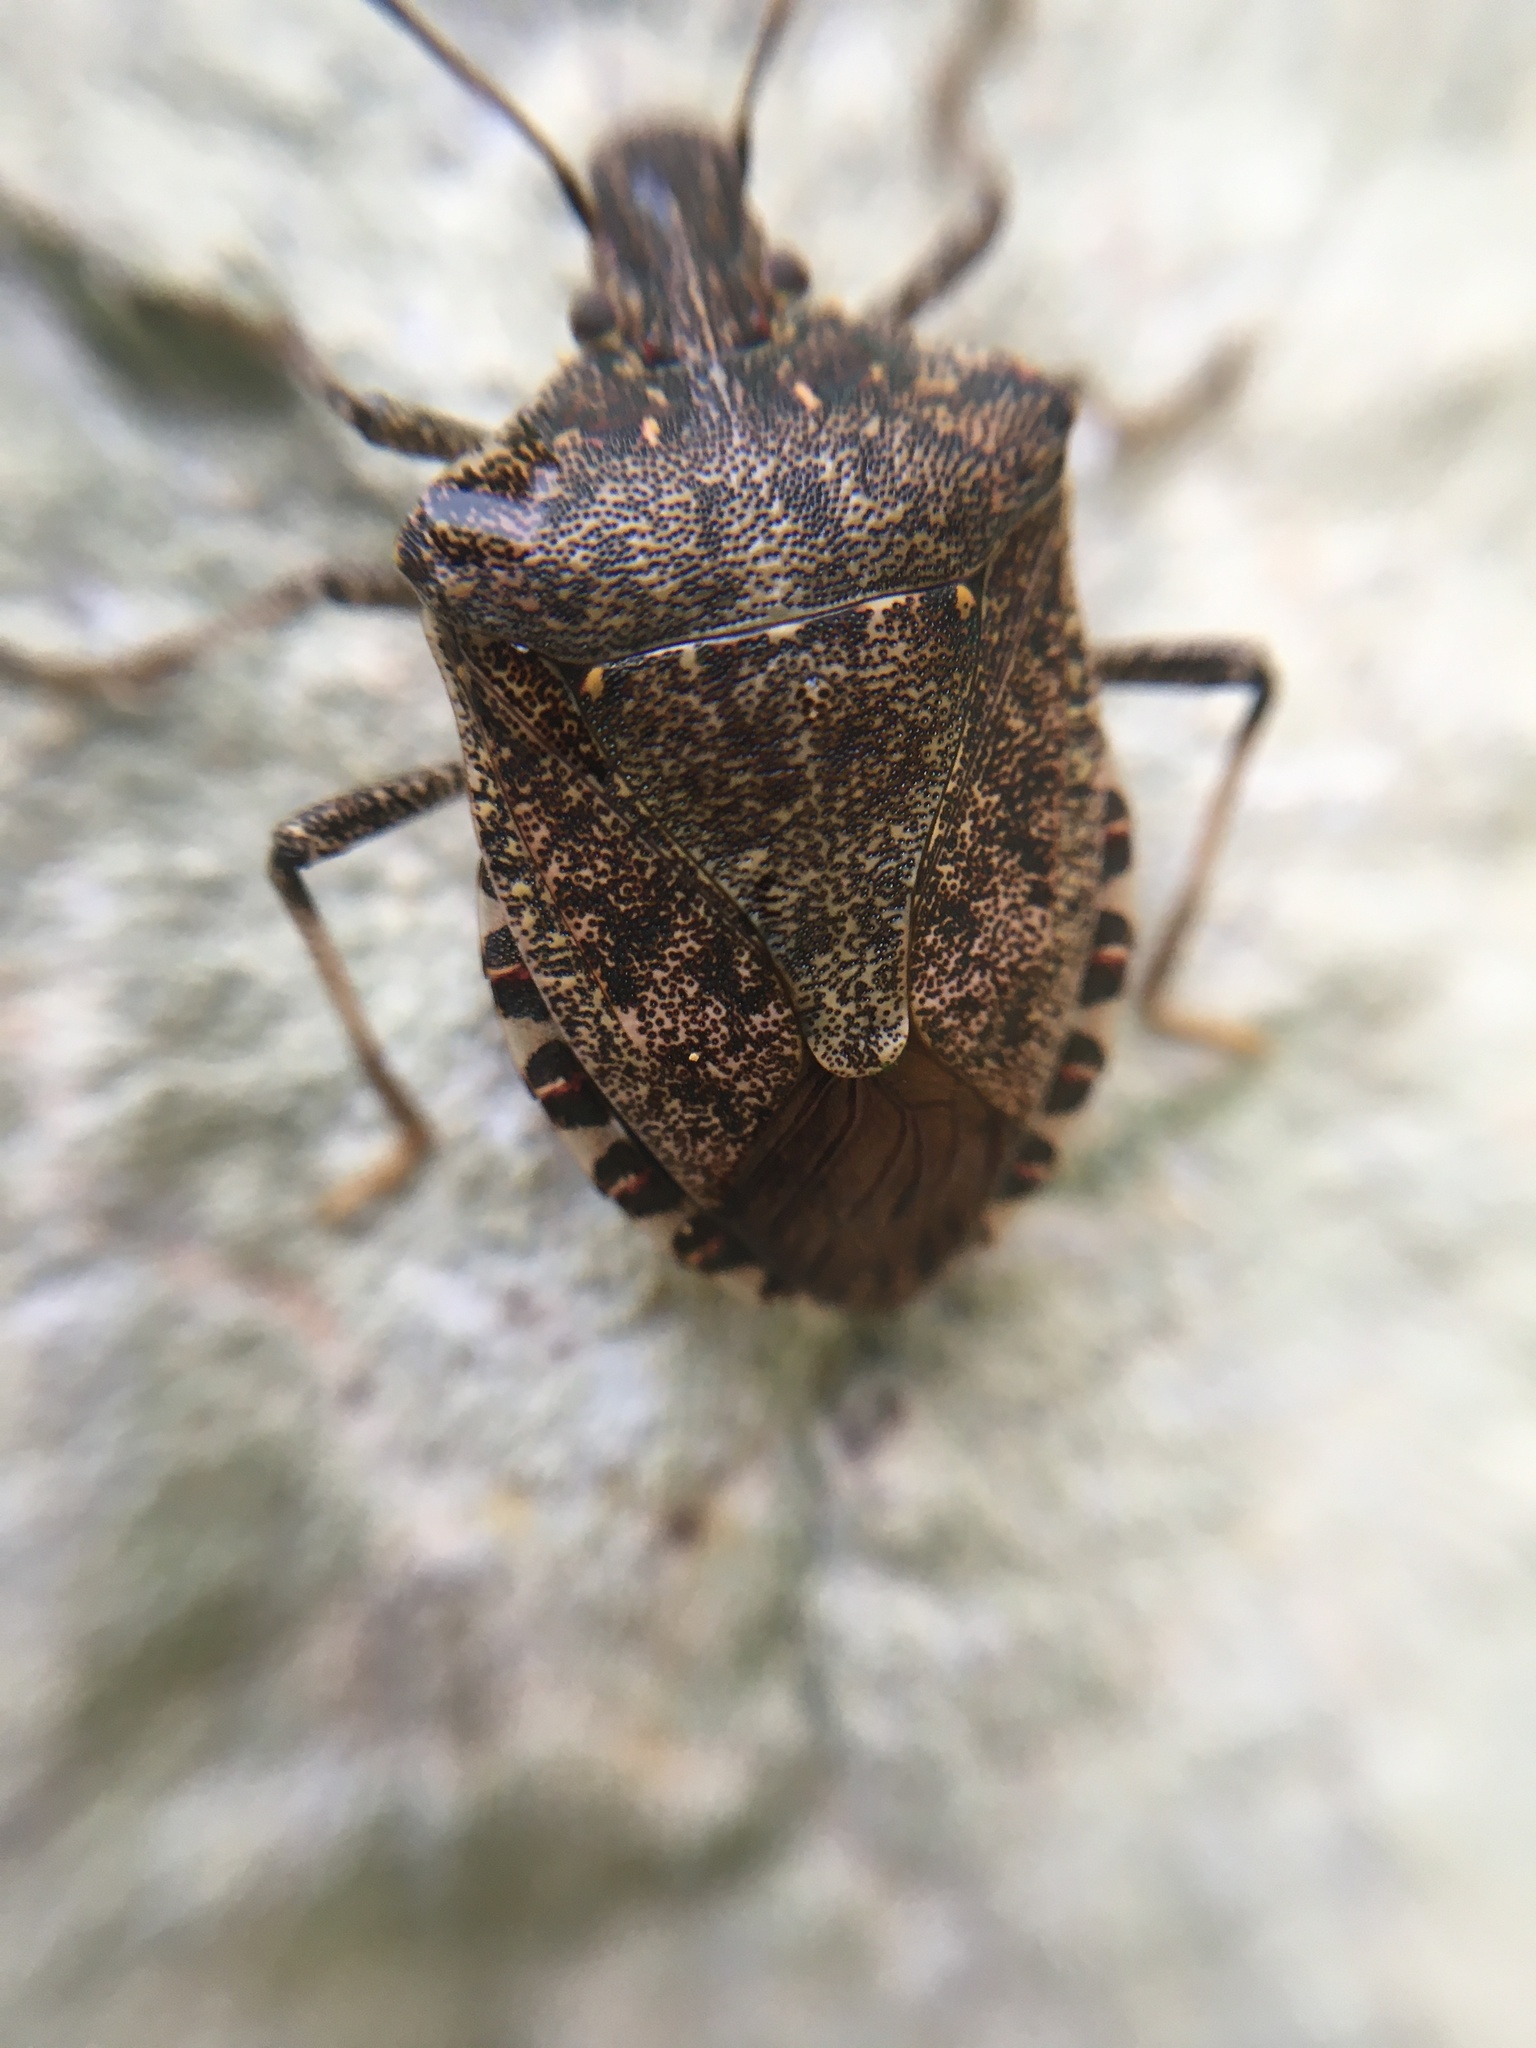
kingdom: Animalia
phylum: Arthropoda
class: Insecta
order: Hemiptera
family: Pentatomidae
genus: Halyomorpha
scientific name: Halyomorpha halys
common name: Brown marmorated stink bug
